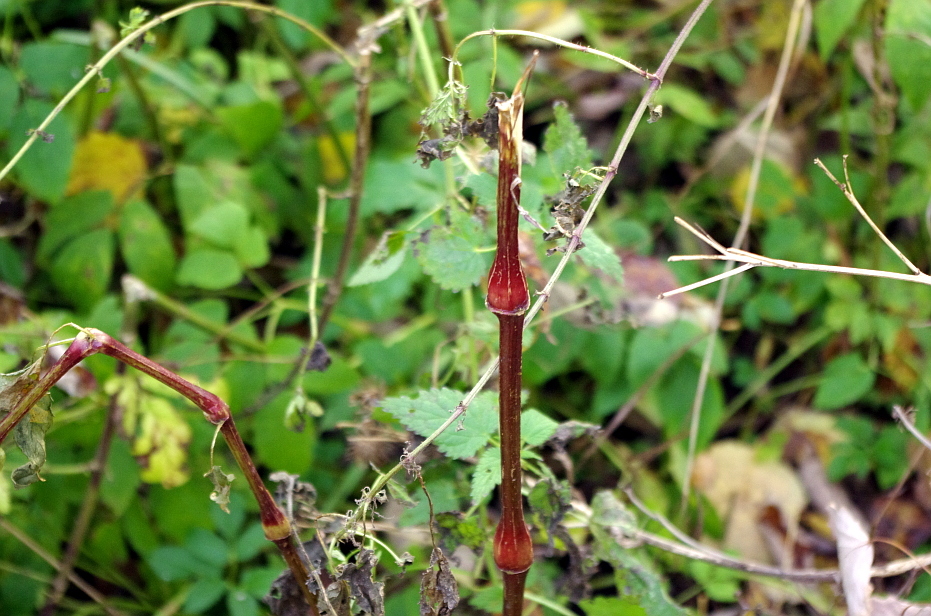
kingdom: Plantae
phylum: Tracheophyta
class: Magnoliopsida
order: Ericales
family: Balsaminaceae
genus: Impatiens
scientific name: Impatiens glandulifera
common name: Himalayan balsam
